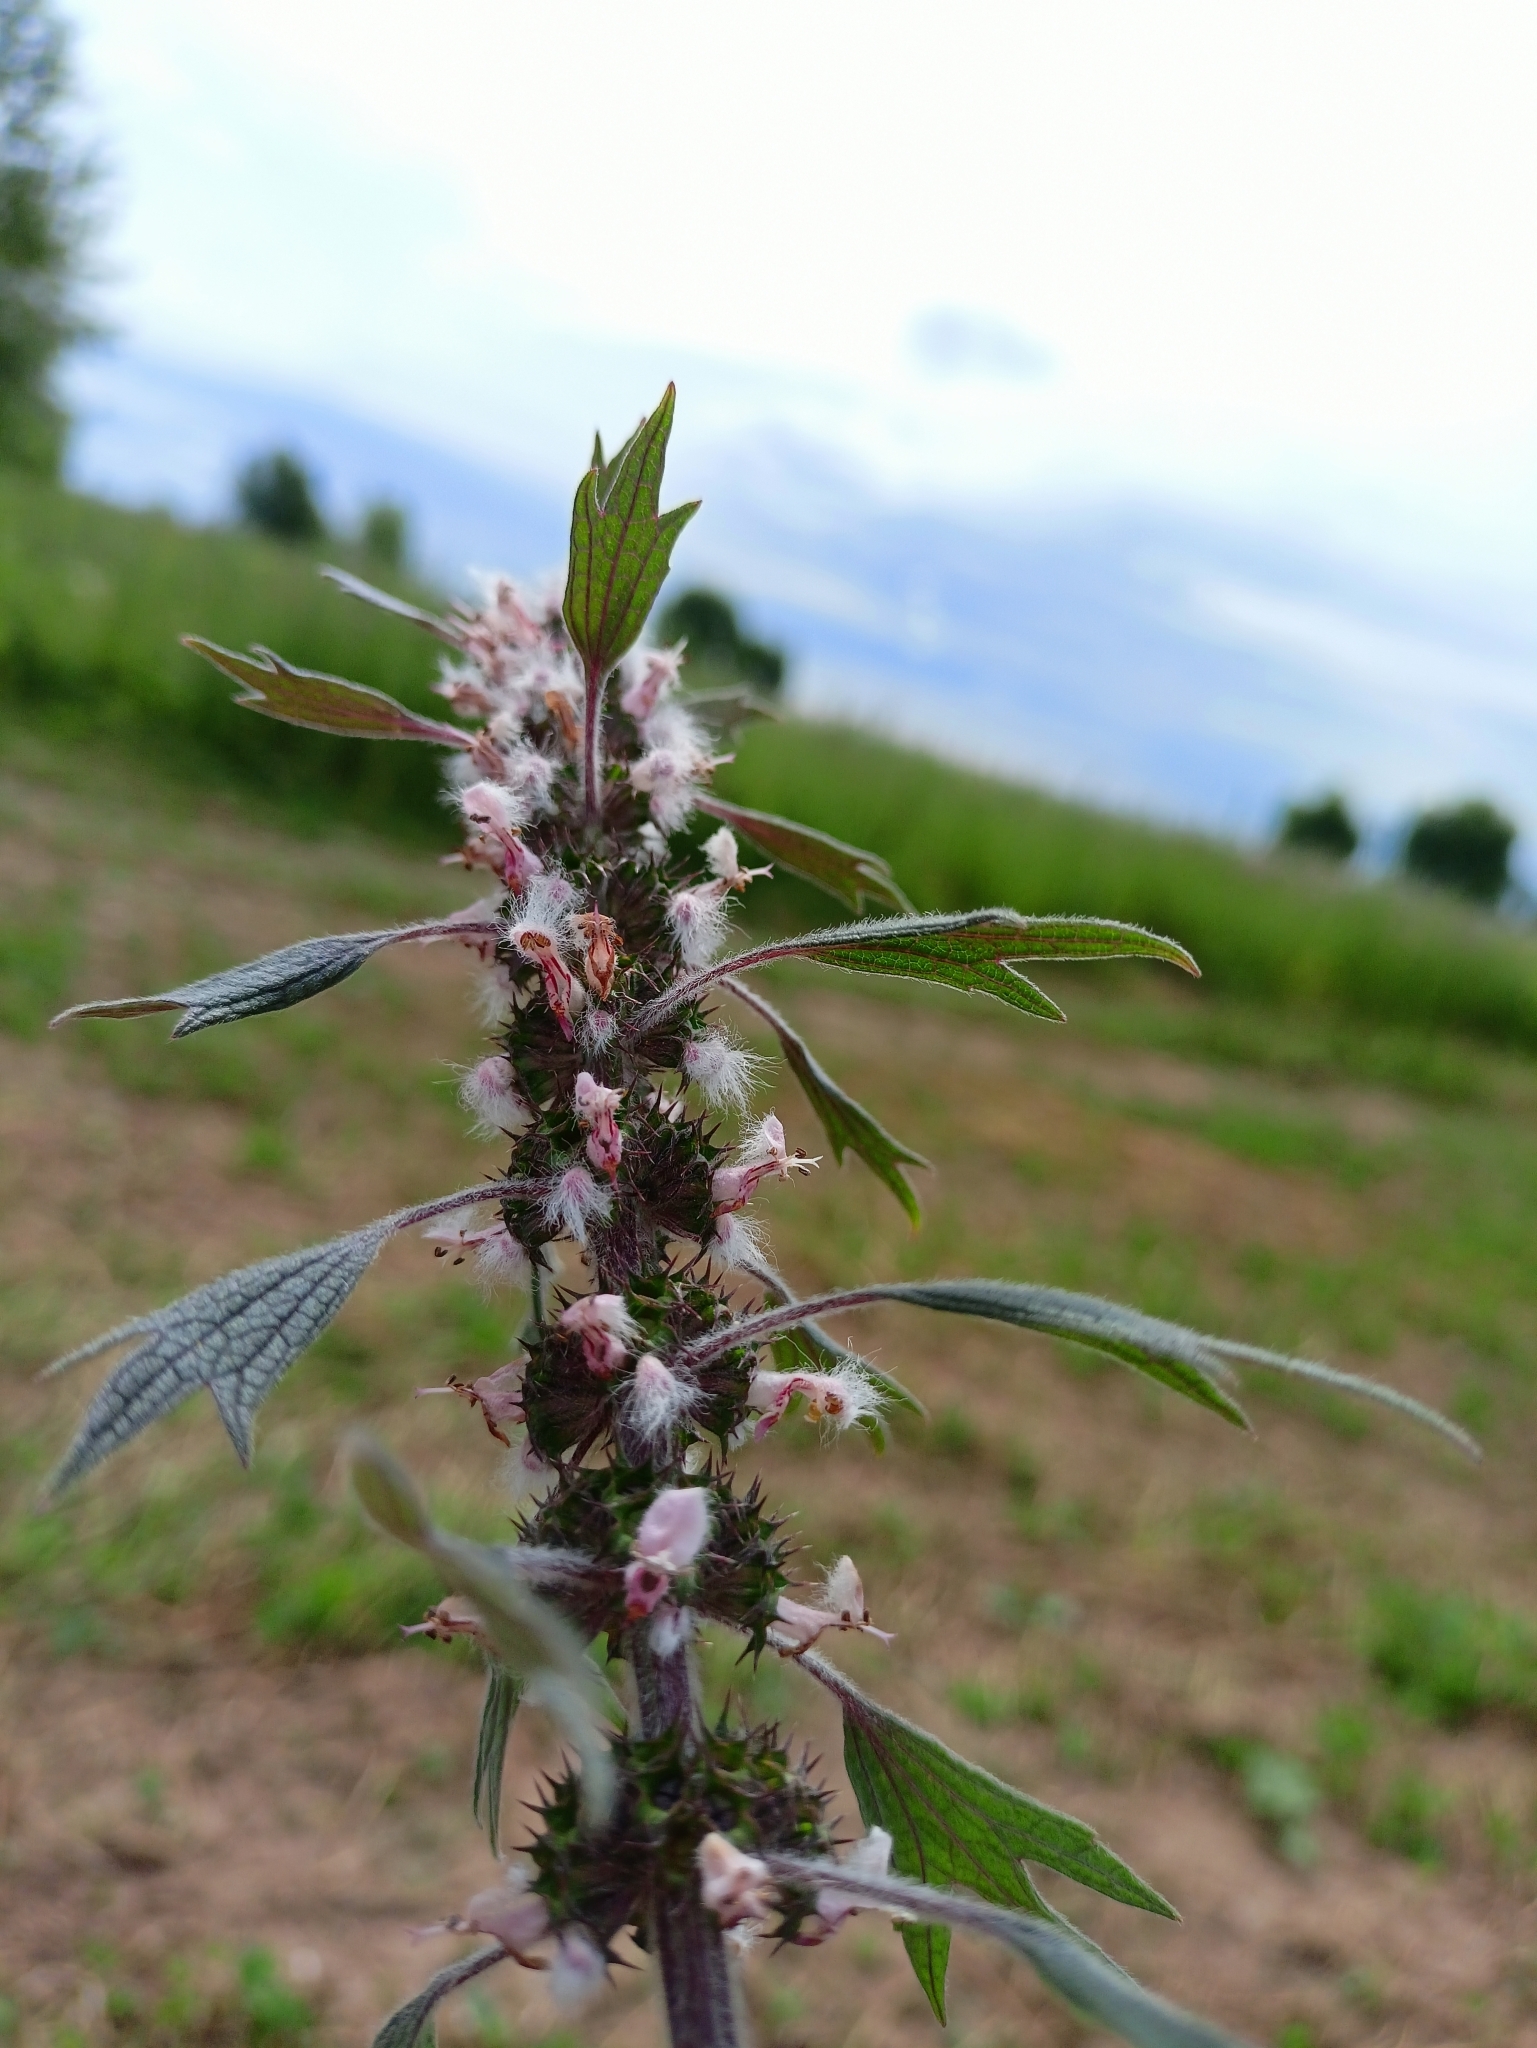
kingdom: Plantae
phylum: Tracheophyta
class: Magnoliopsida
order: Lamiales
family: Lamiaceae
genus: Leonurus
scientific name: Leonurus quinquelobatus
